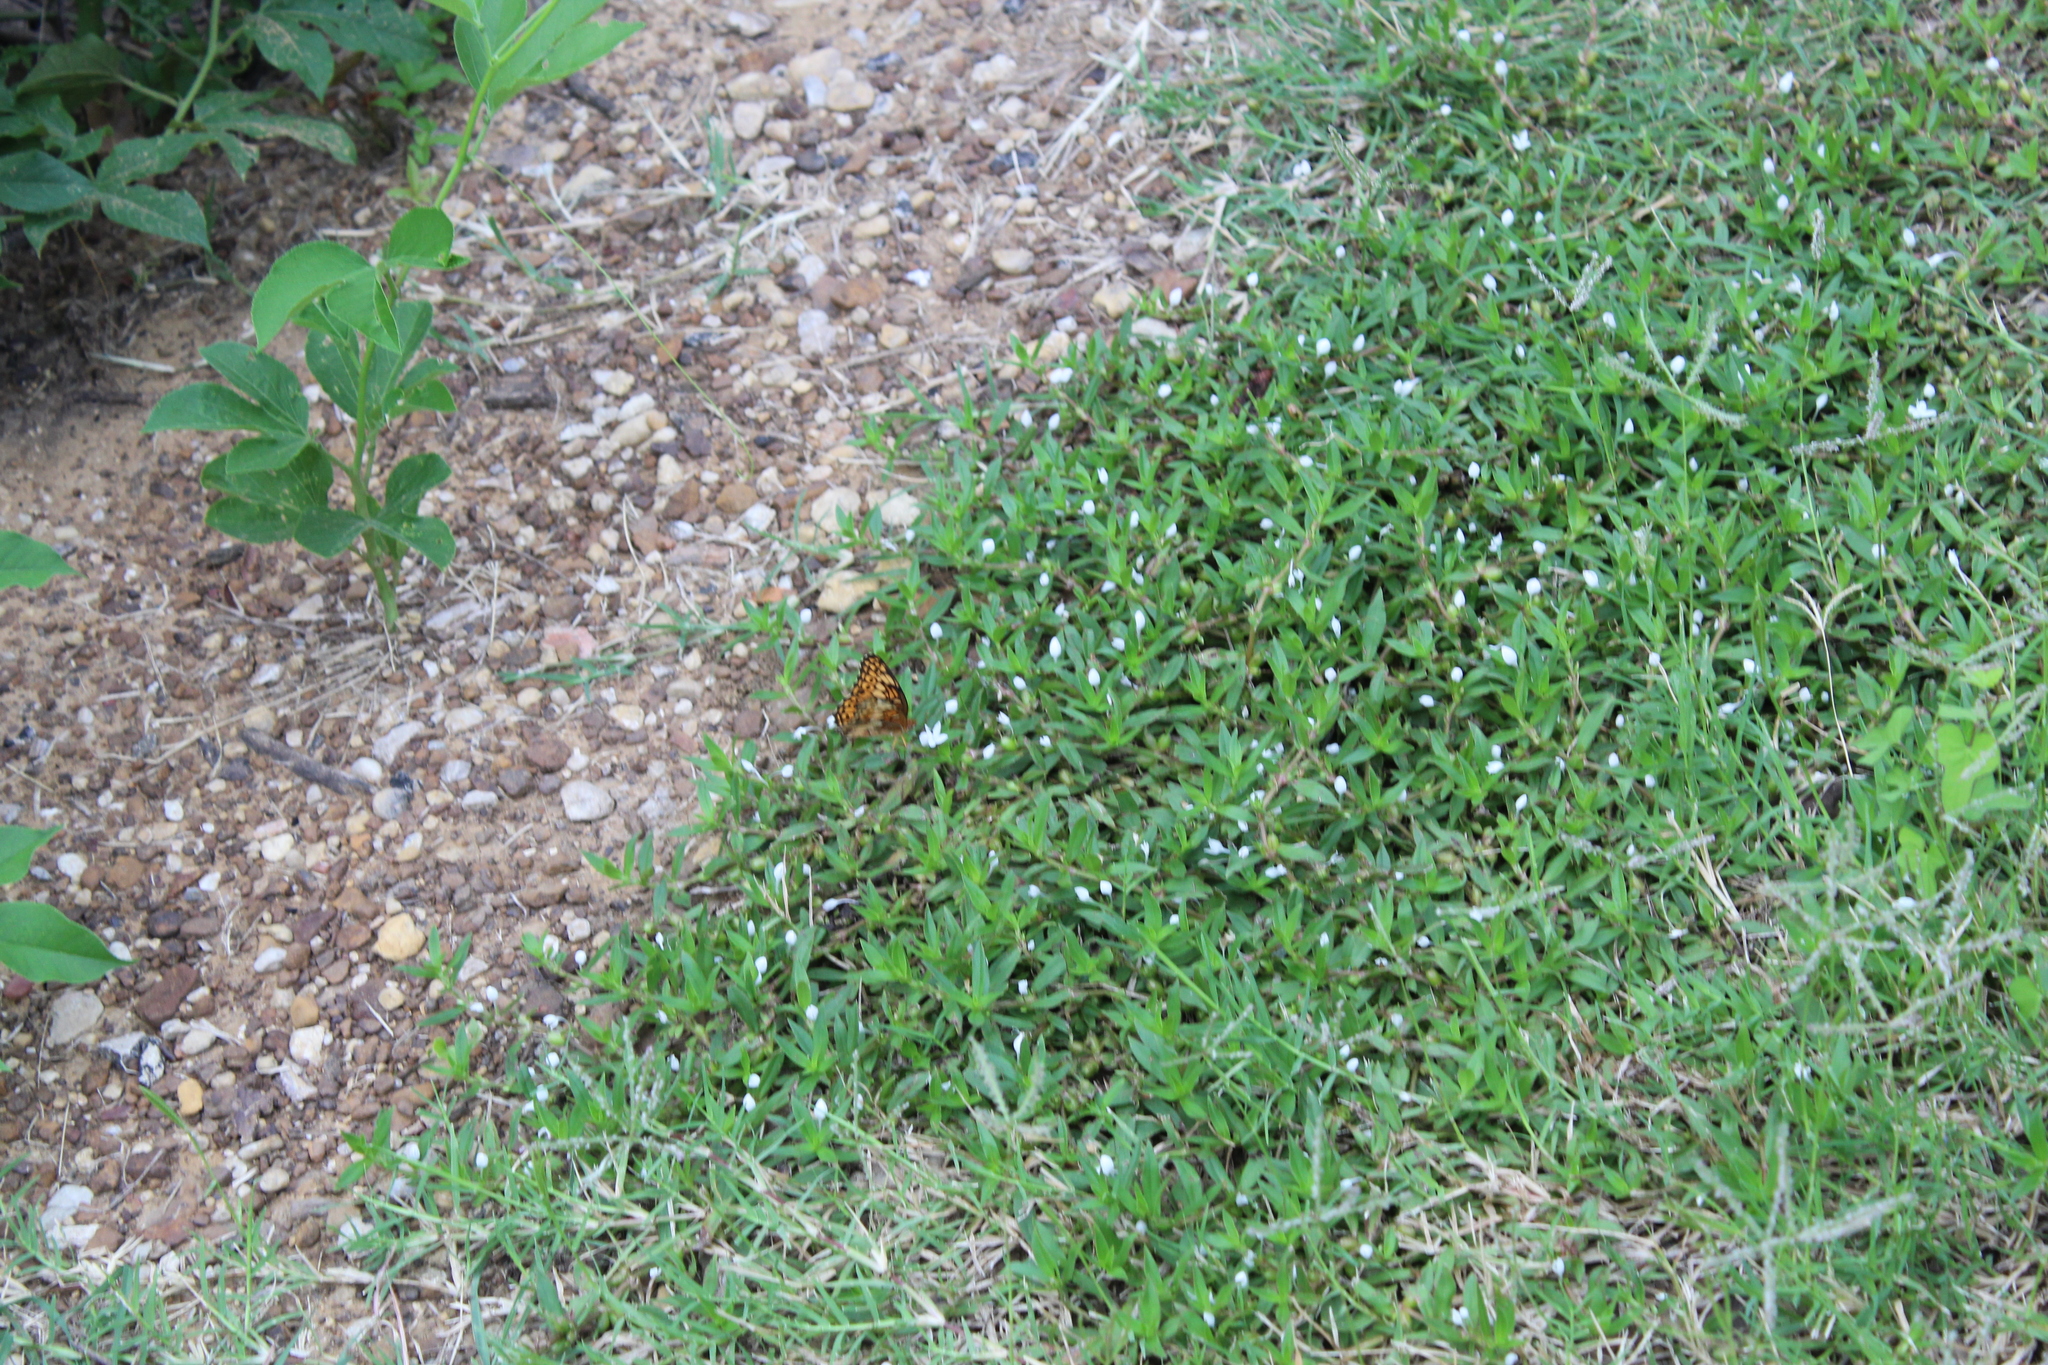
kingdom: Animalia
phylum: Arthropoda
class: Insecta
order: Lepidoptera
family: Nymphalidae
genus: Euptoieta
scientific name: Euptoieta claudia
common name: Variegated fritillary
